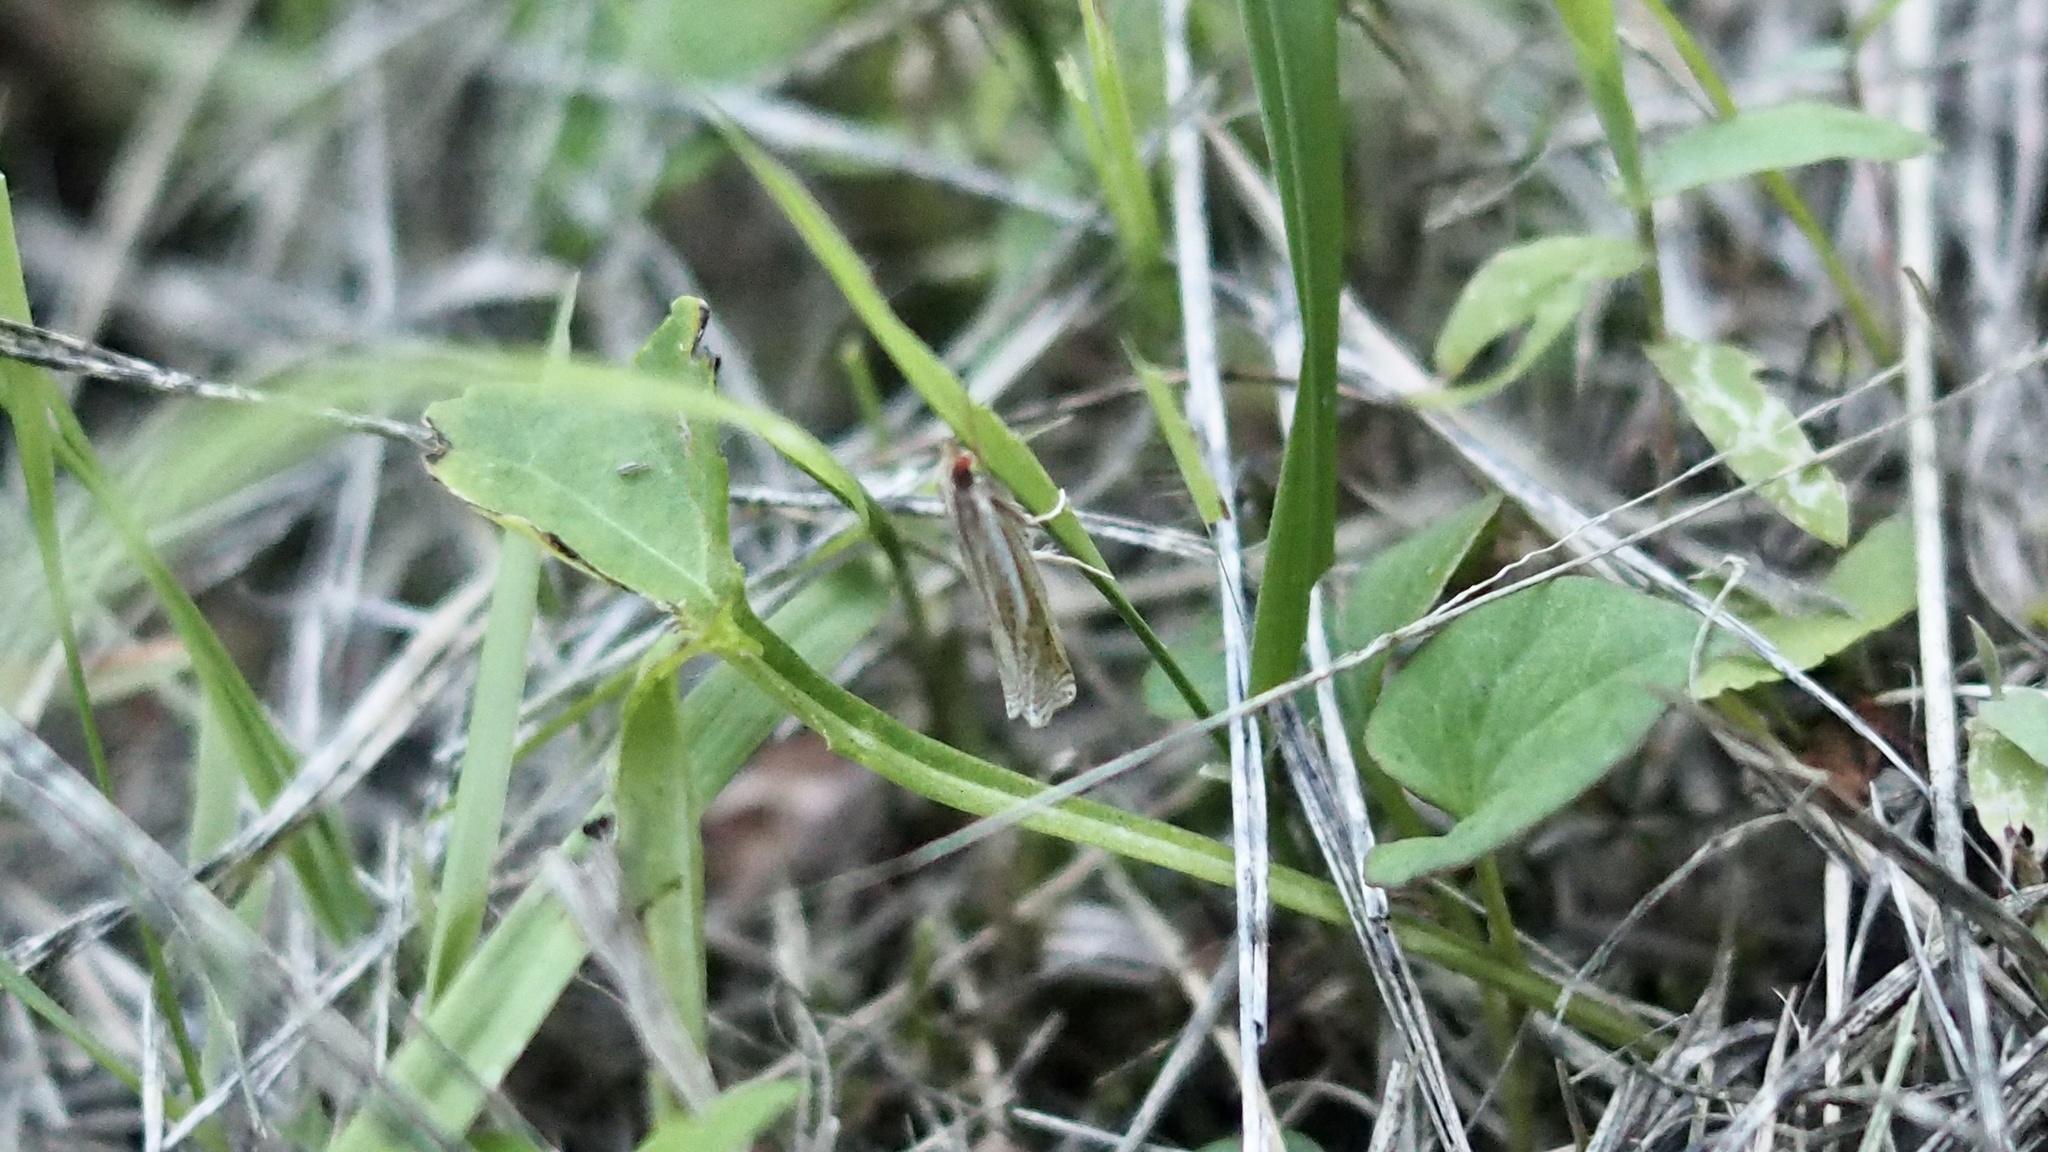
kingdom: Animalia
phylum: Arthropoda
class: Insecta
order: Lepidoptera
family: Crambidae
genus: Ancylolomia
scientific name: Ancylolomia japonica
